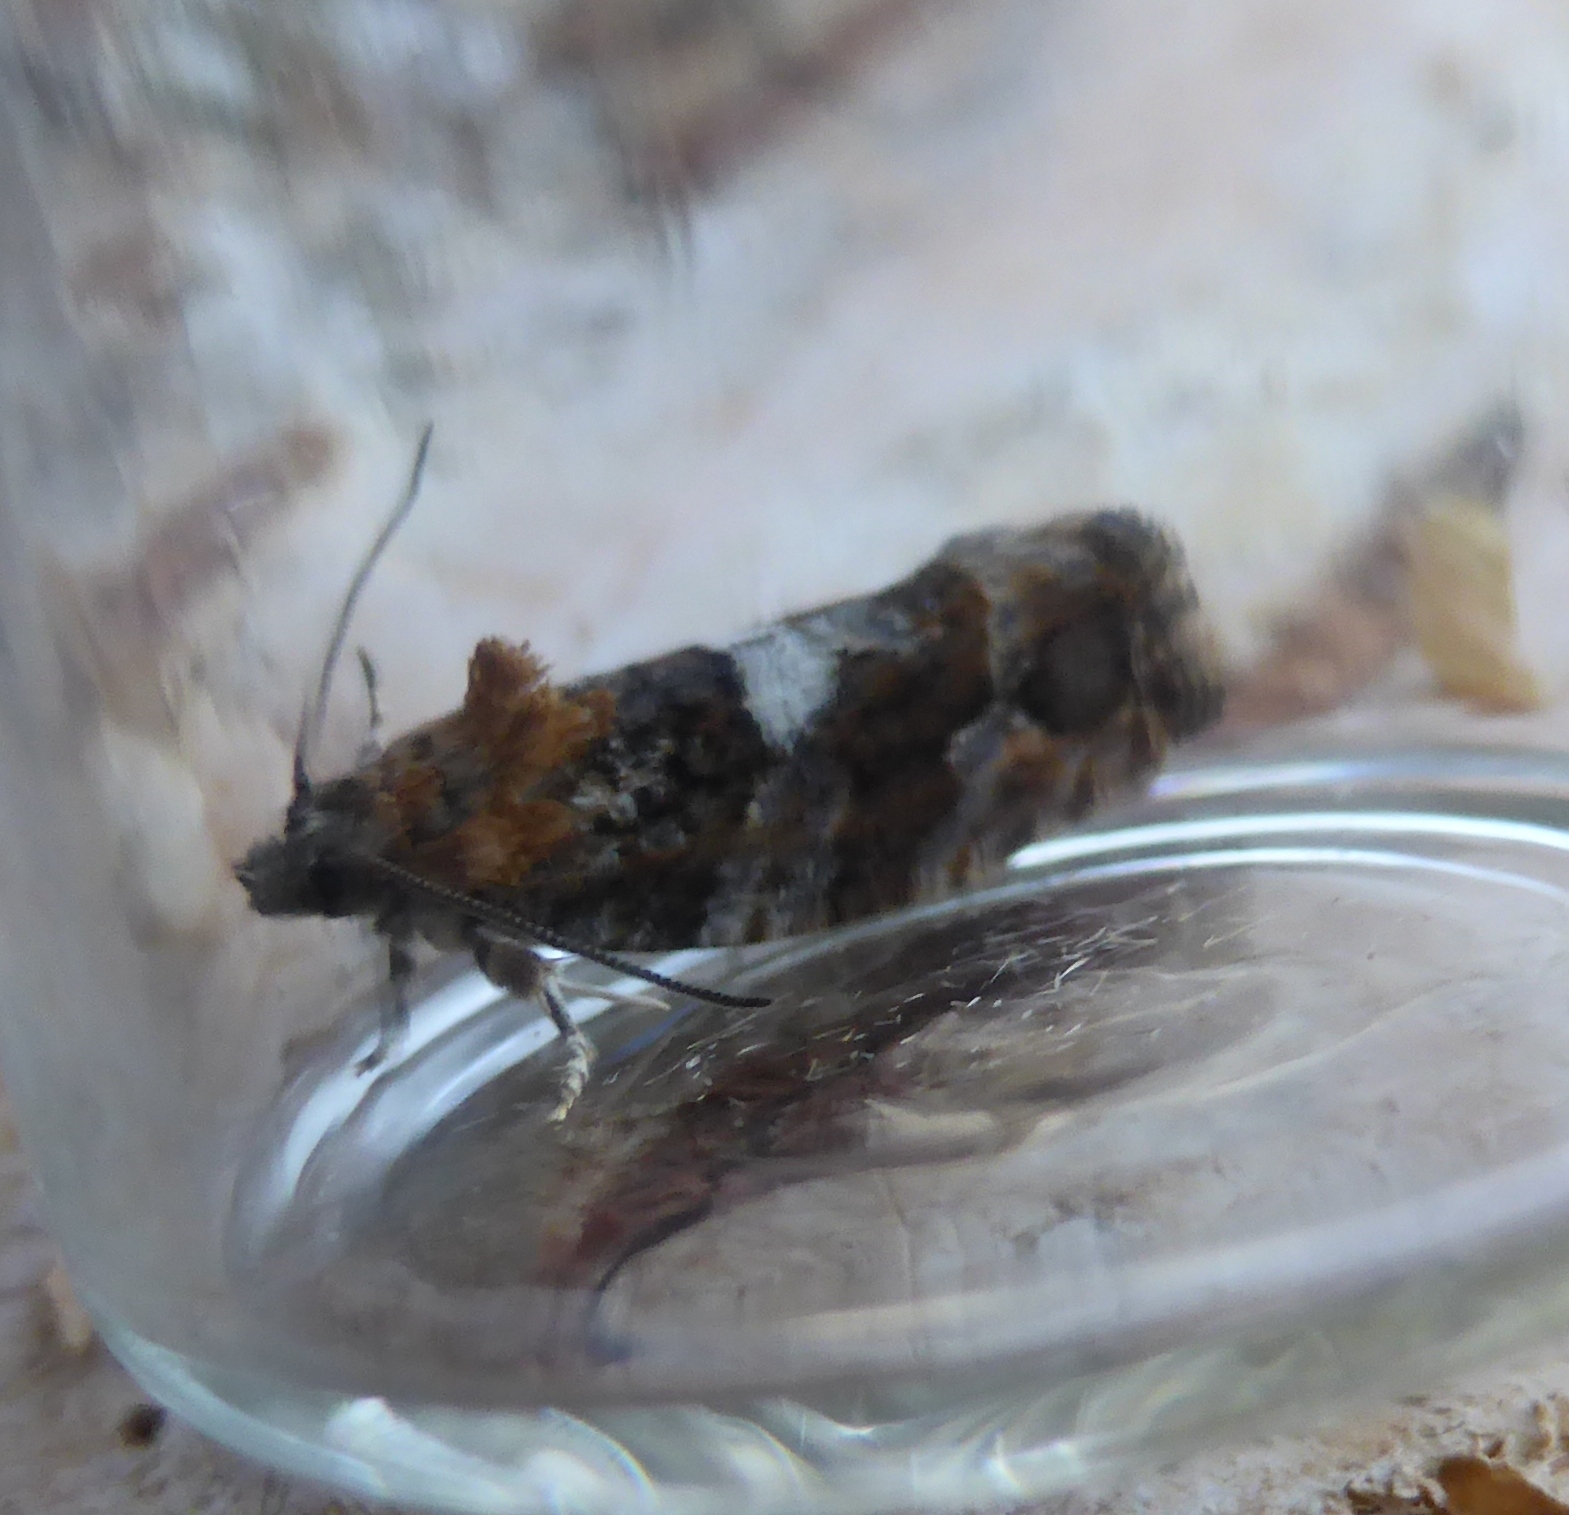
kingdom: Animalia
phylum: Arthropoda
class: Insecta
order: Lepidoptera
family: Tortricidae
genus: Eudemis
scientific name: Eudemis profundana
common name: Diamond-back marble
